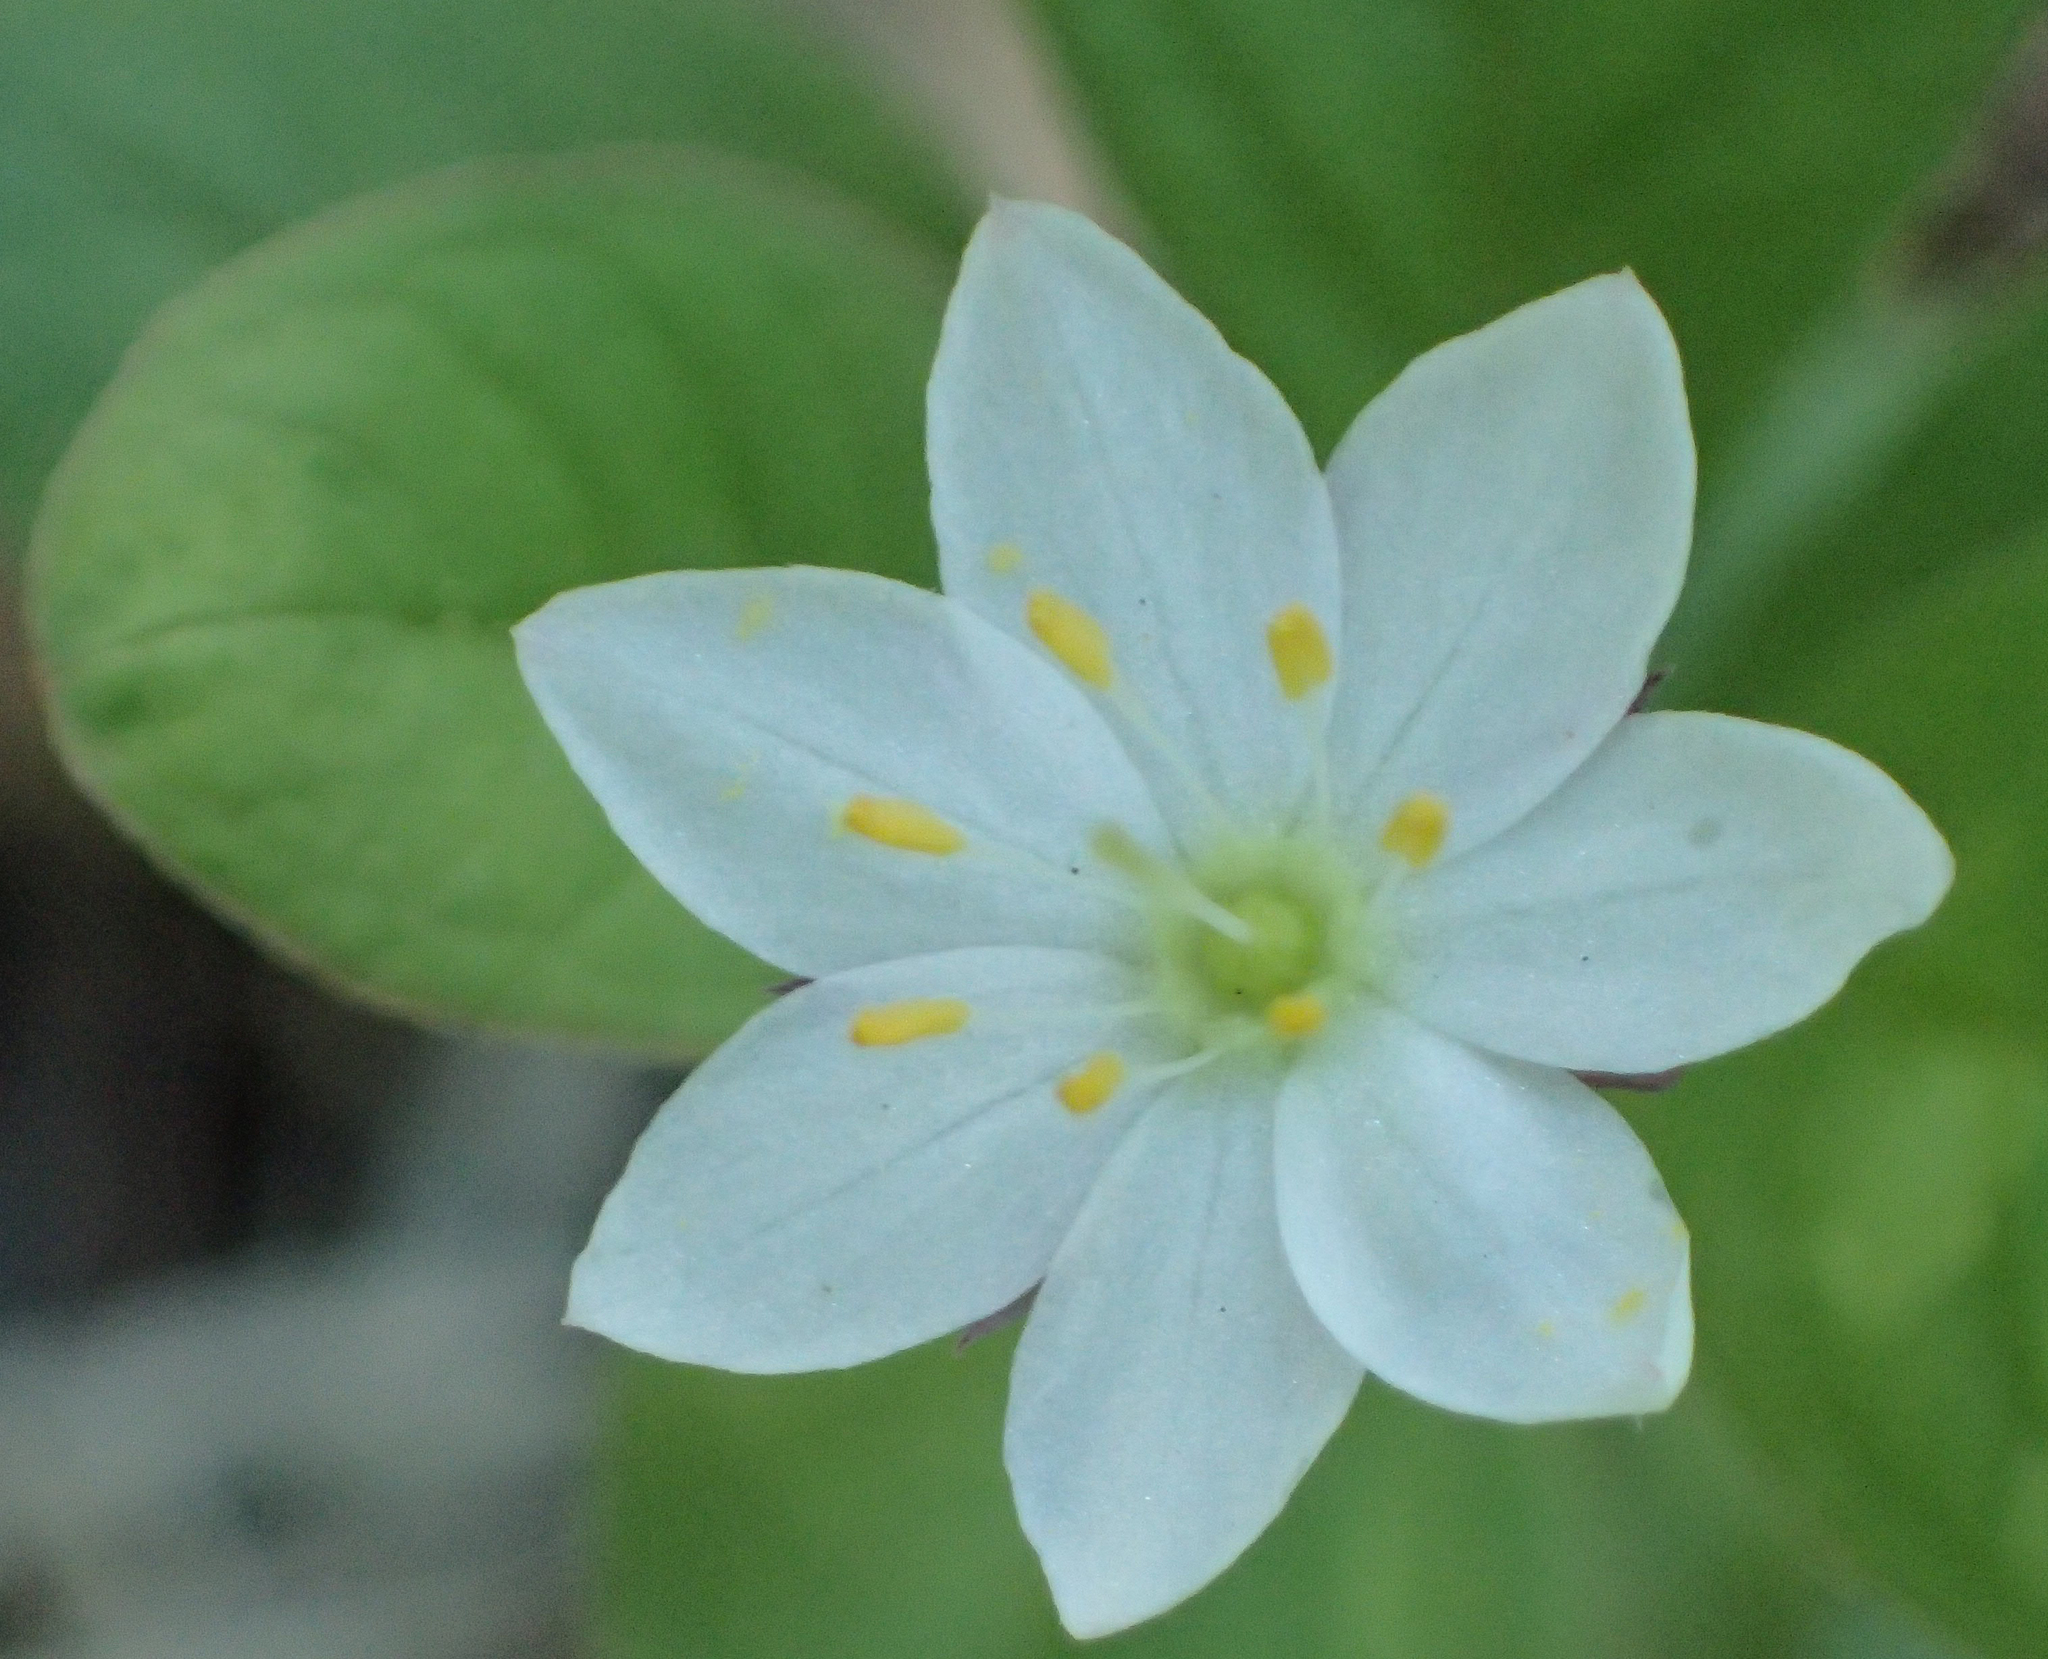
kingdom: Plantae
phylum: Tracheophyta
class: Magnoliopsida
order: Ericales
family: Primulaceae
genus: Lysimachia
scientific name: Lysimachia europaea
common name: Arctic starflower
